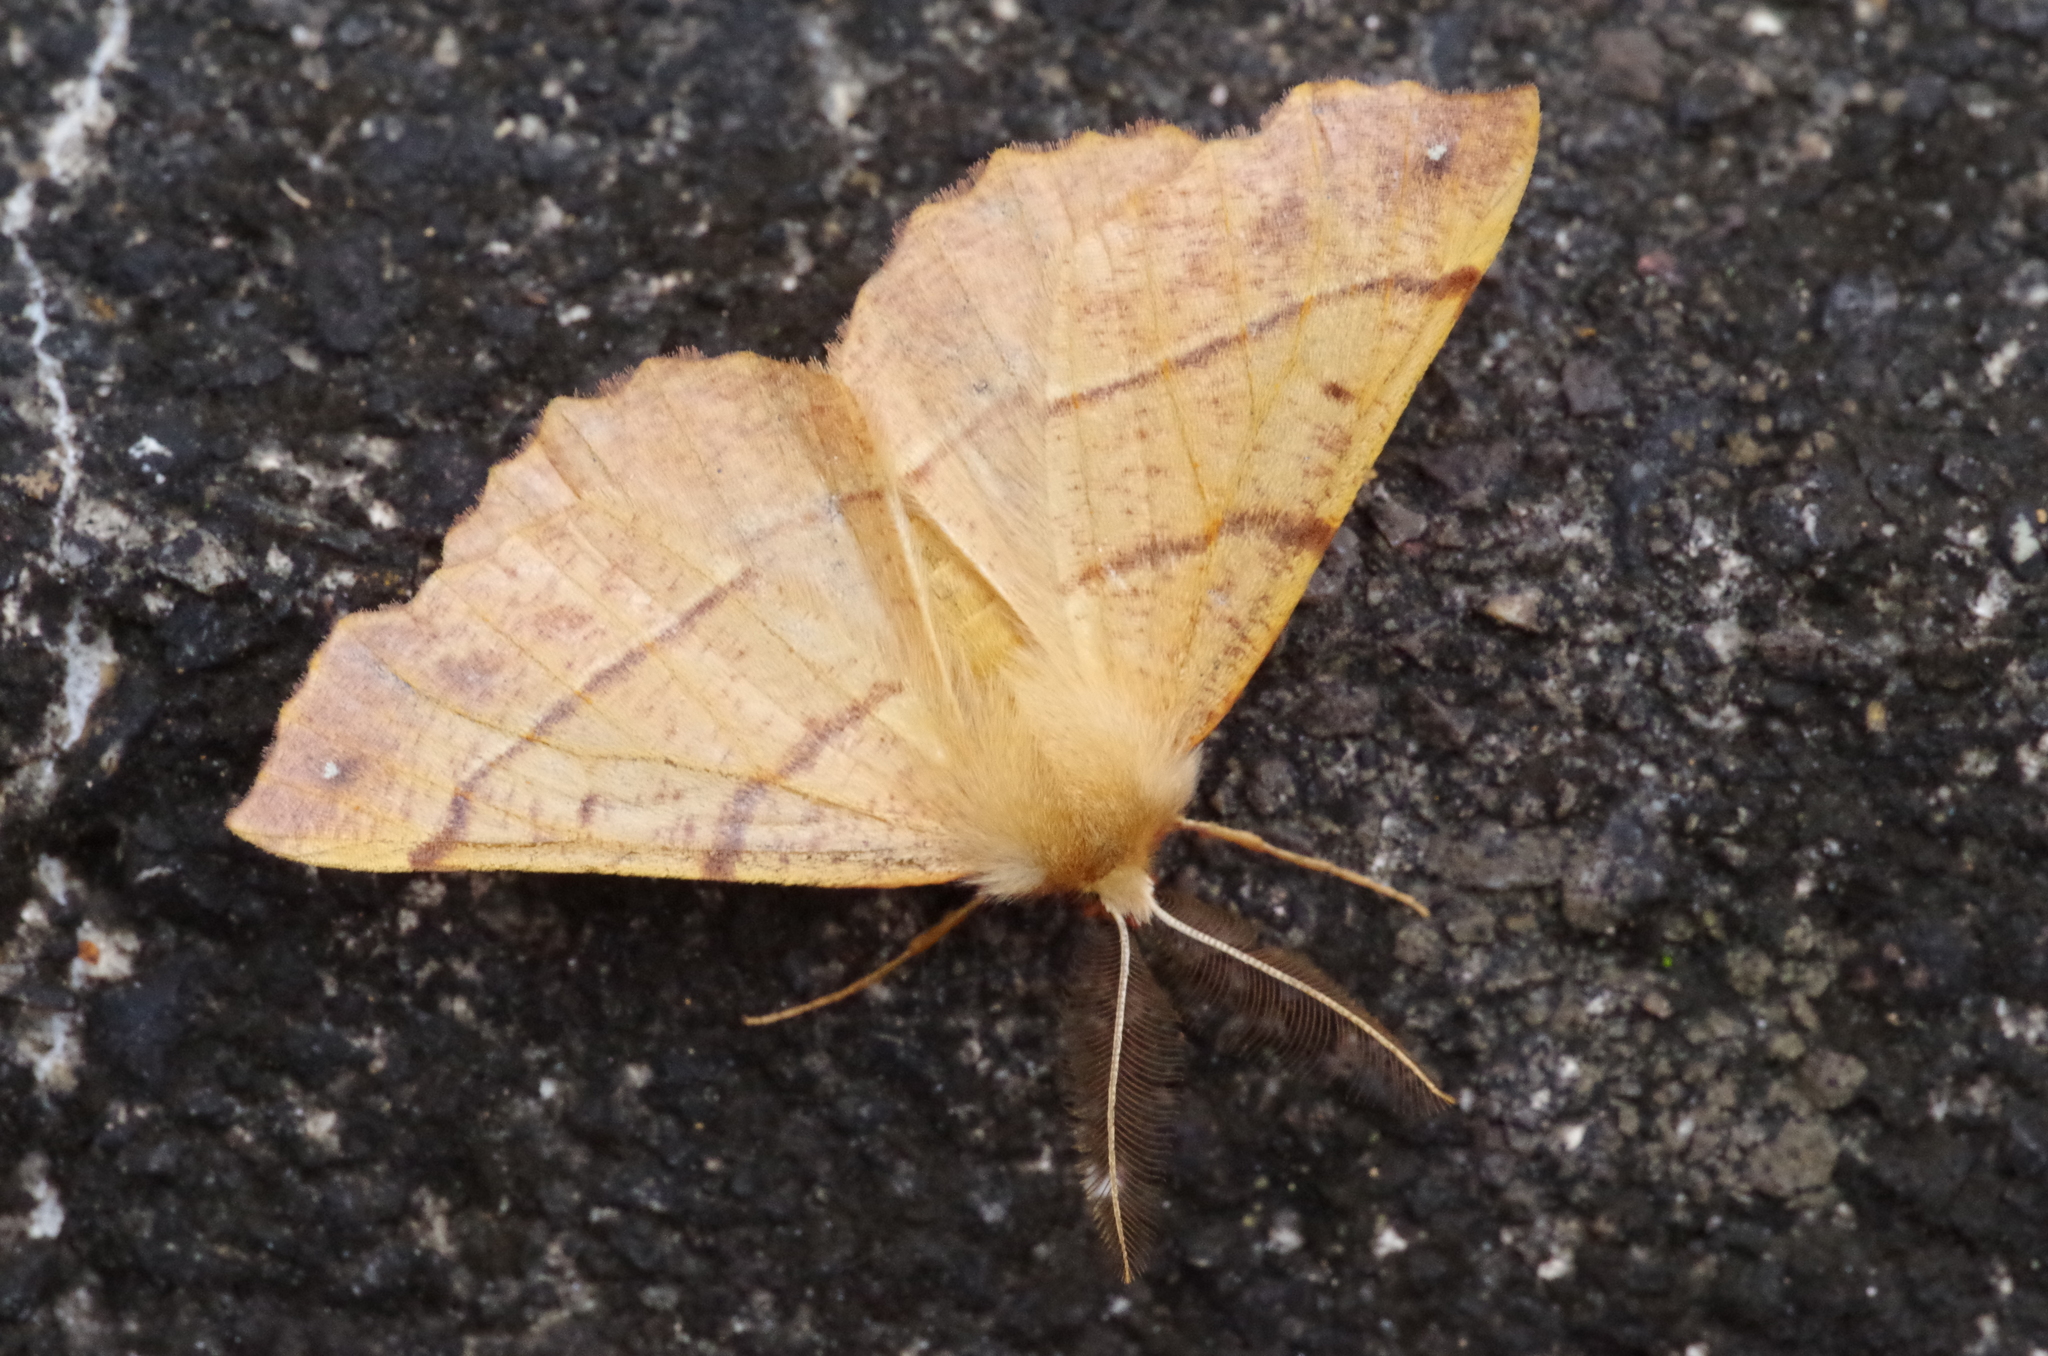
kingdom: Animalia
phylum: Arthropoda
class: Insecta
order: Lepidoptera
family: Geometridae
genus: Colotois
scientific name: Colotois pennaria
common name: Feathered thorn
